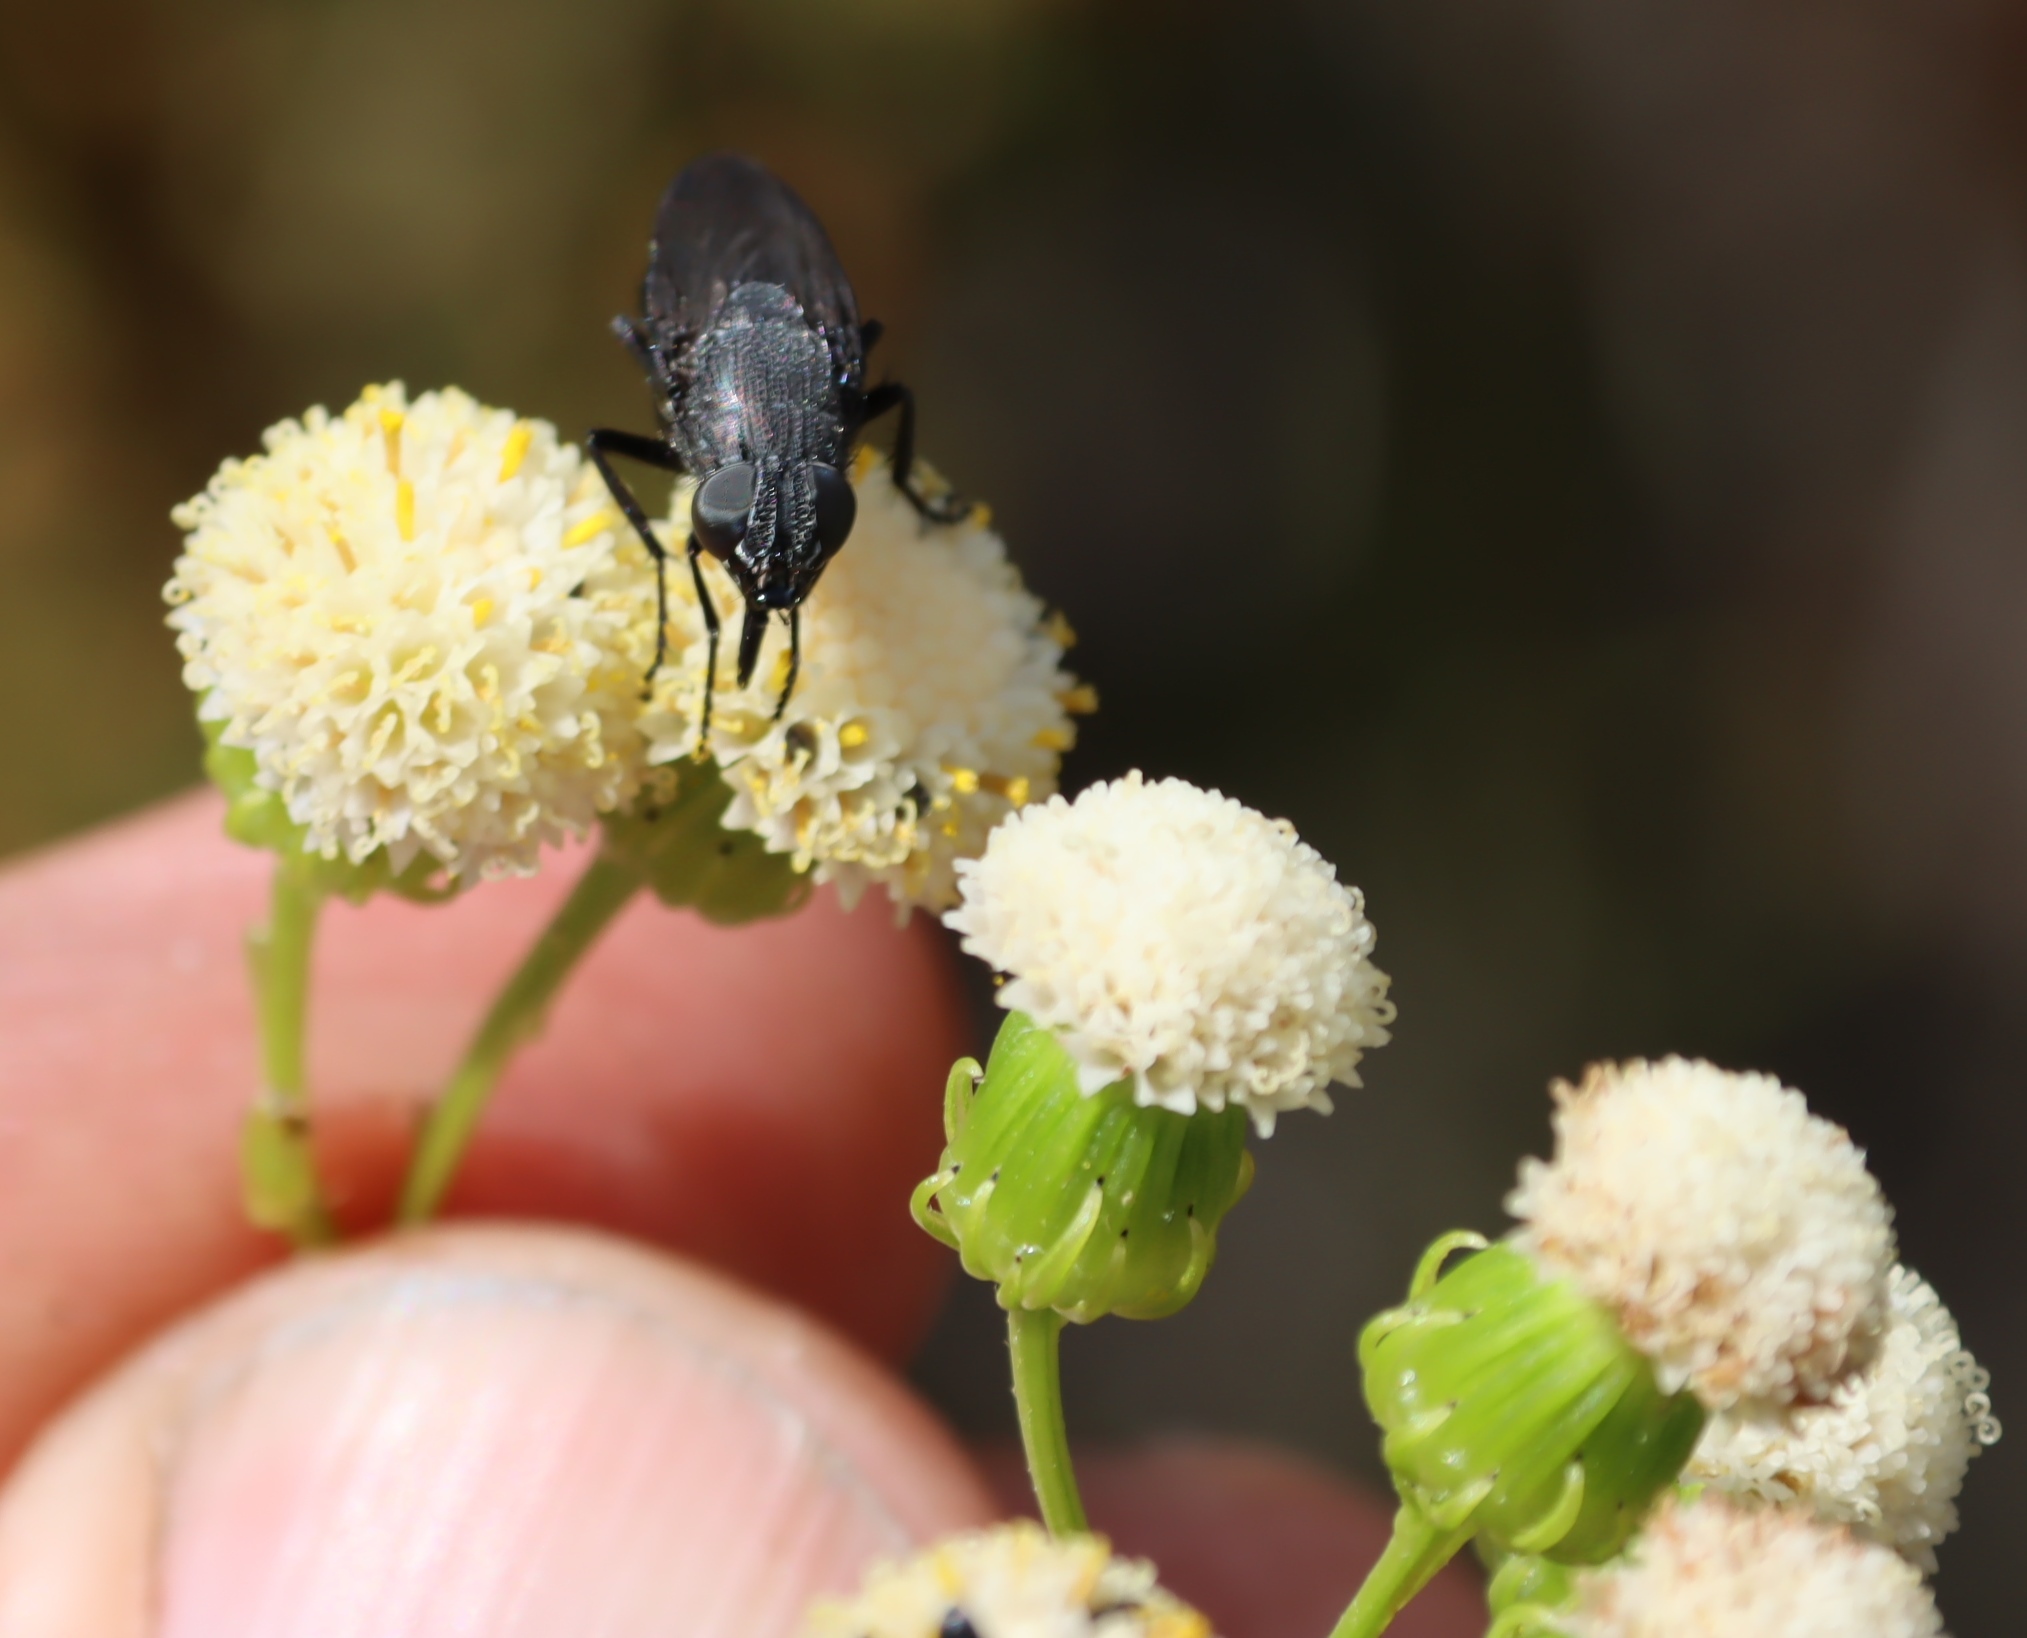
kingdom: Animalia
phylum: Arthropoda
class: Insecta
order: Diptera
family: Calliphoridae
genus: Cosmina
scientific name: Cosmina fuscipennis
